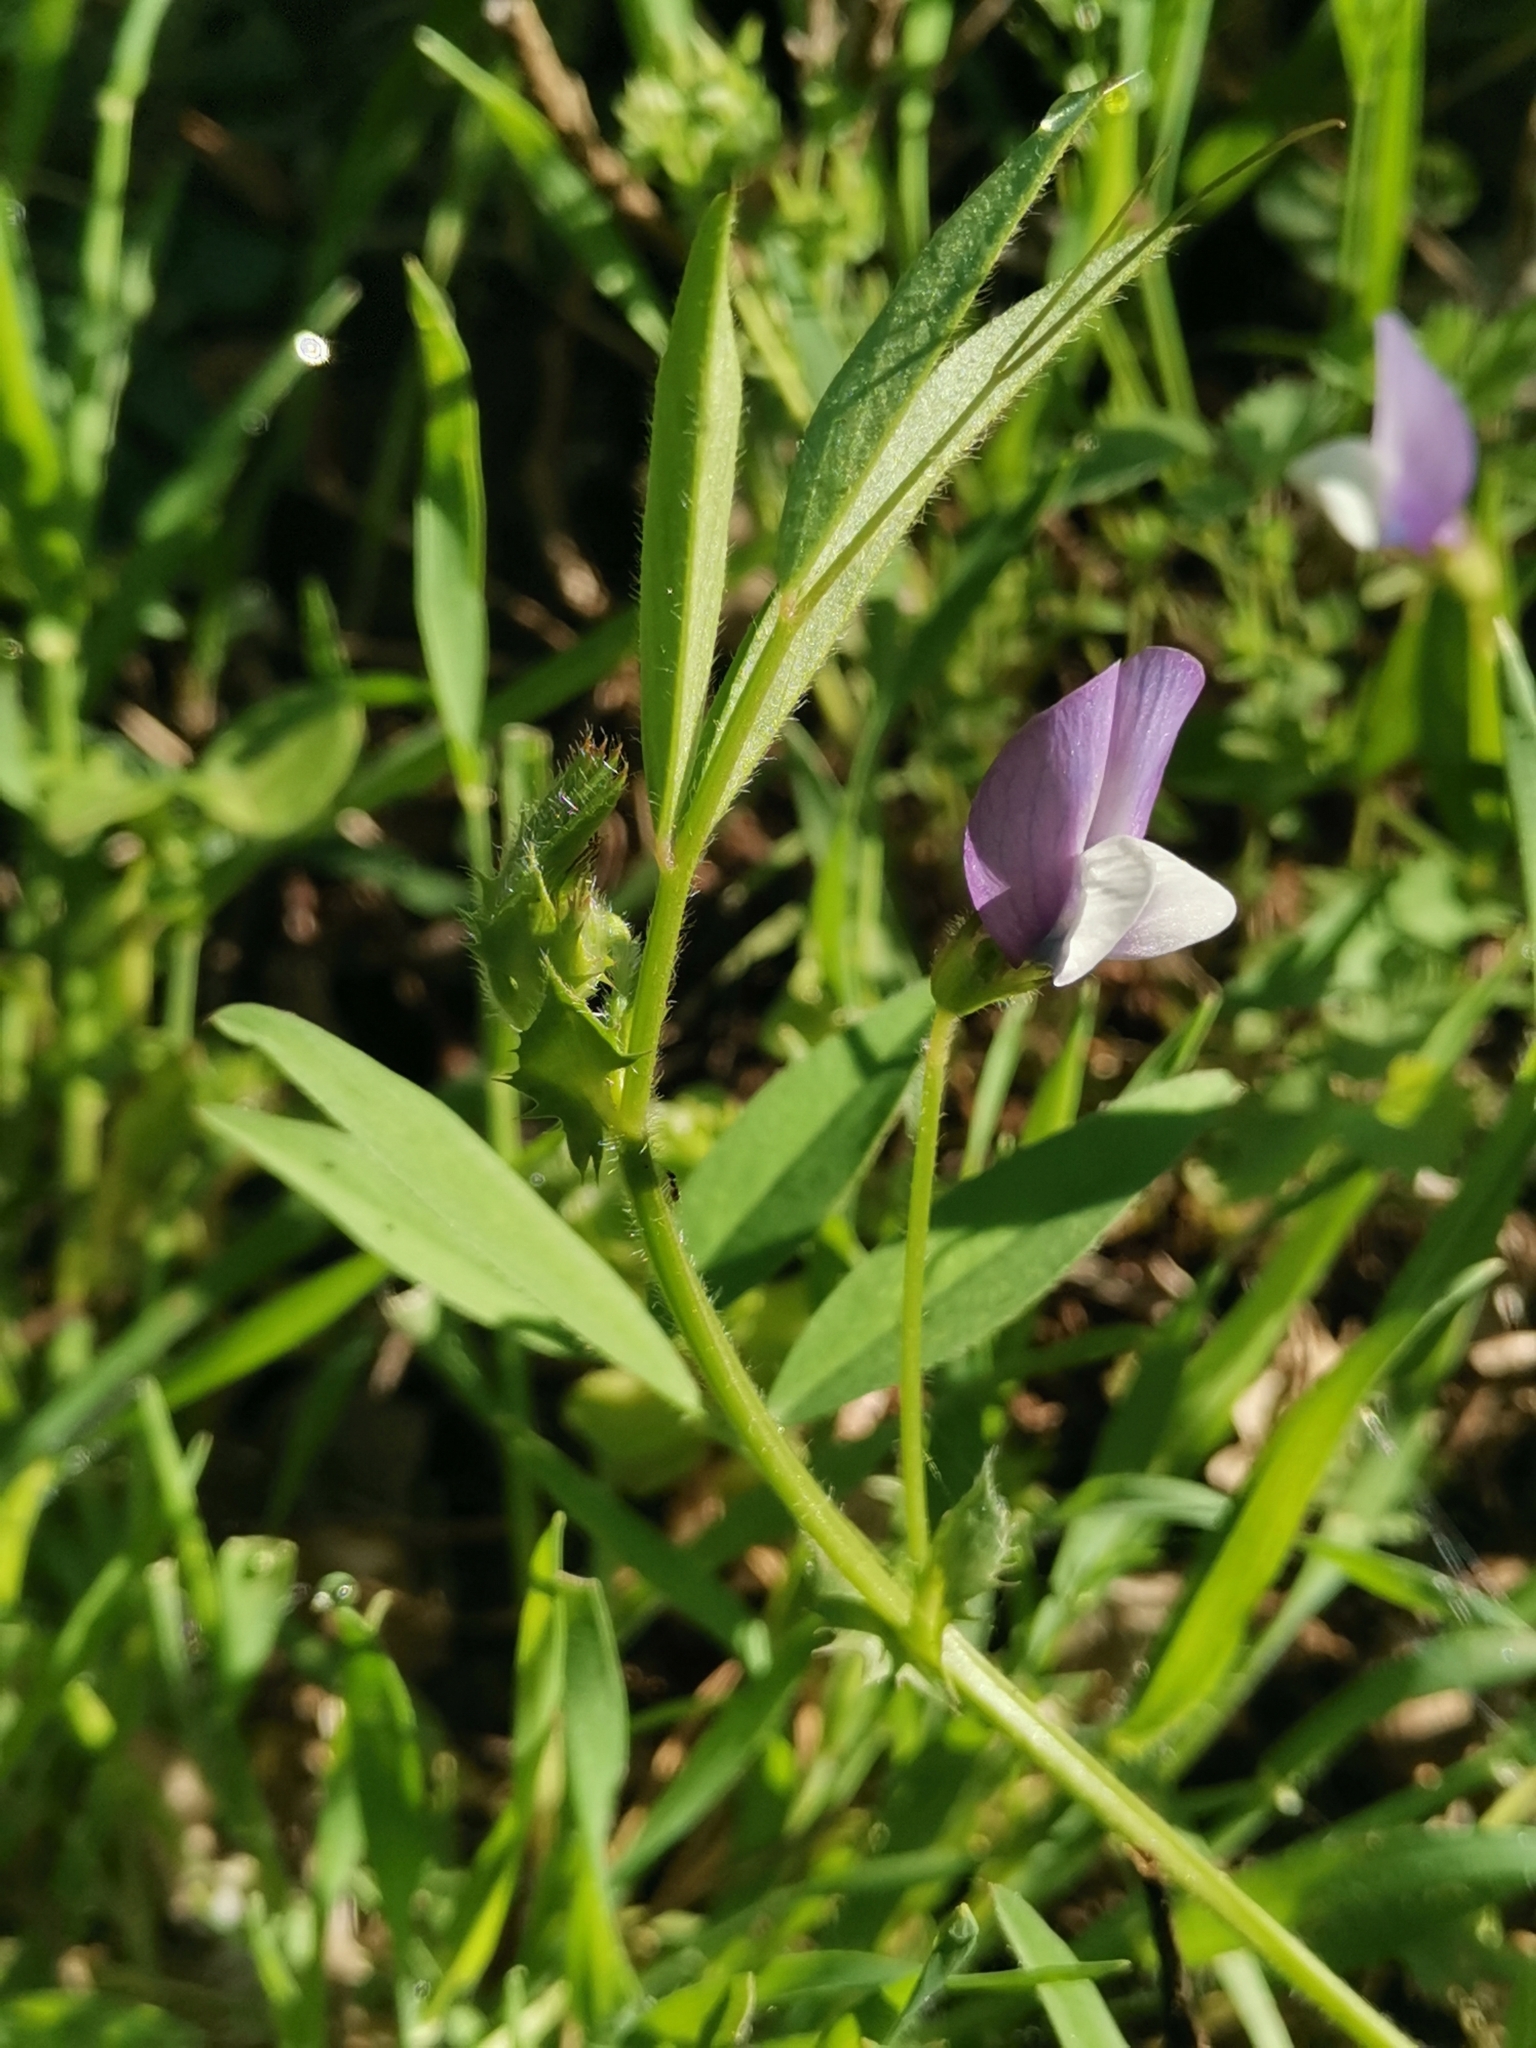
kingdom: Plantae
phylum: Tracheophyta
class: Magnoliopsida
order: Fabales
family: Fabaceae
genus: Vicia
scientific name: Vicia bithynica
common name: Bithynian vetch
